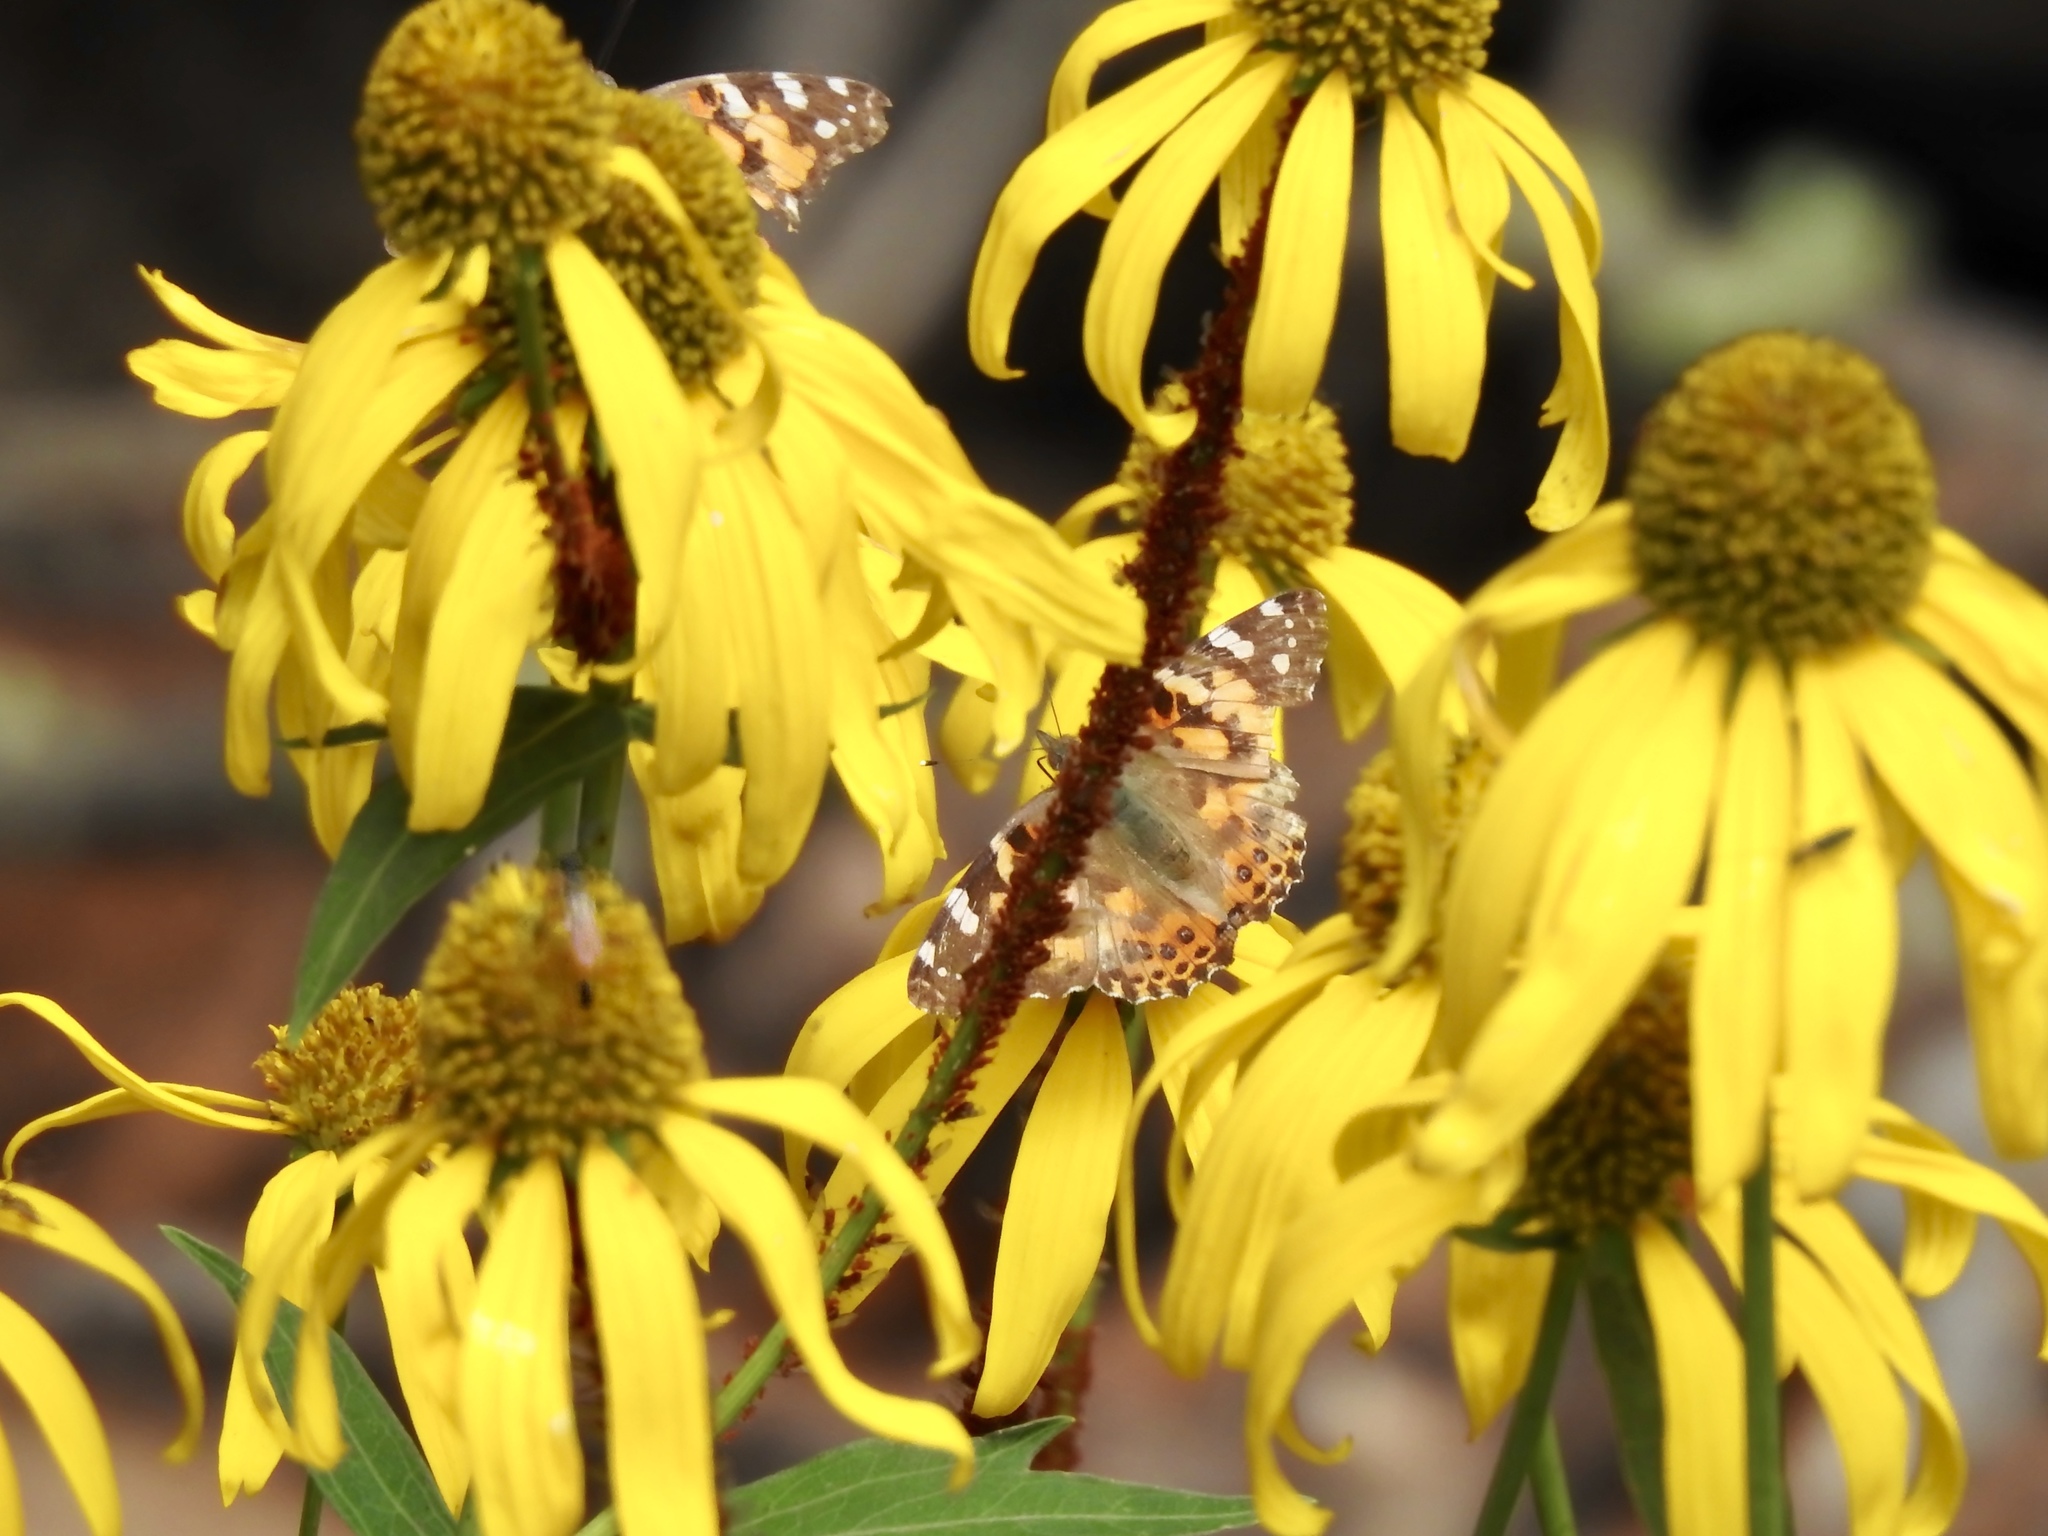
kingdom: Animalia
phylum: Arthropoda
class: Insecta
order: Lepidoptera
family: Nymphalidae
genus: Vanessa
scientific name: Vanessa cardui
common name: Painted lady
